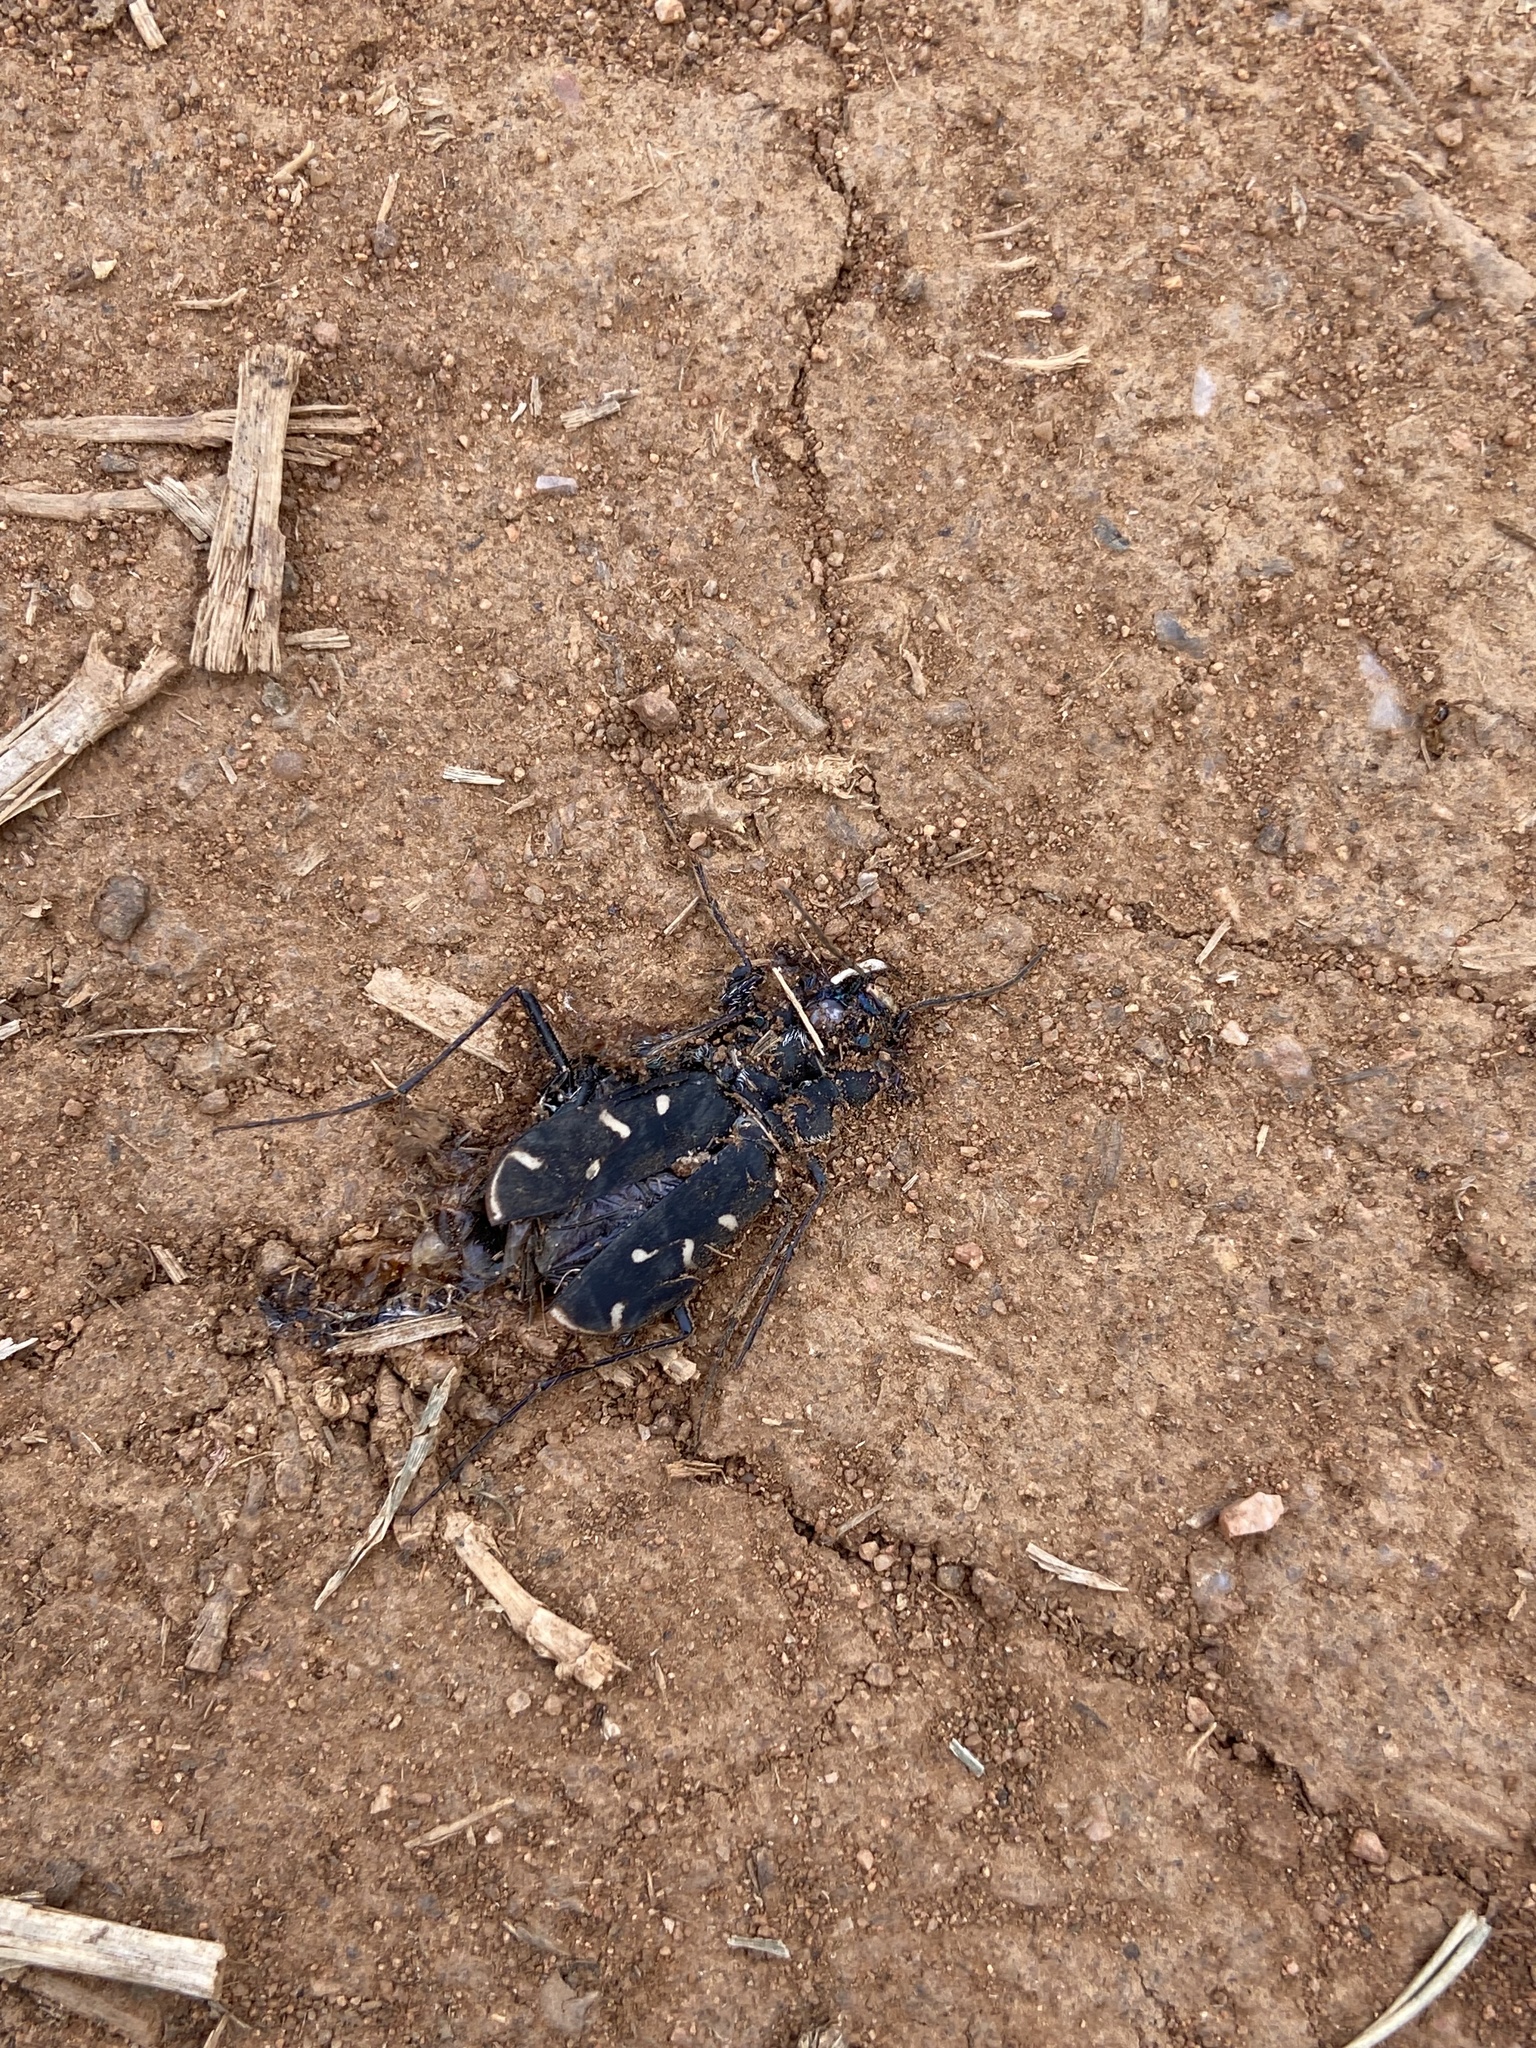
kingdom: Animalia
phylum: Arthropoda
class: Insecta
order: Coleoptera
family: Carabidae
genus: Cicindela
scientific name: Cicindela obsoleta
